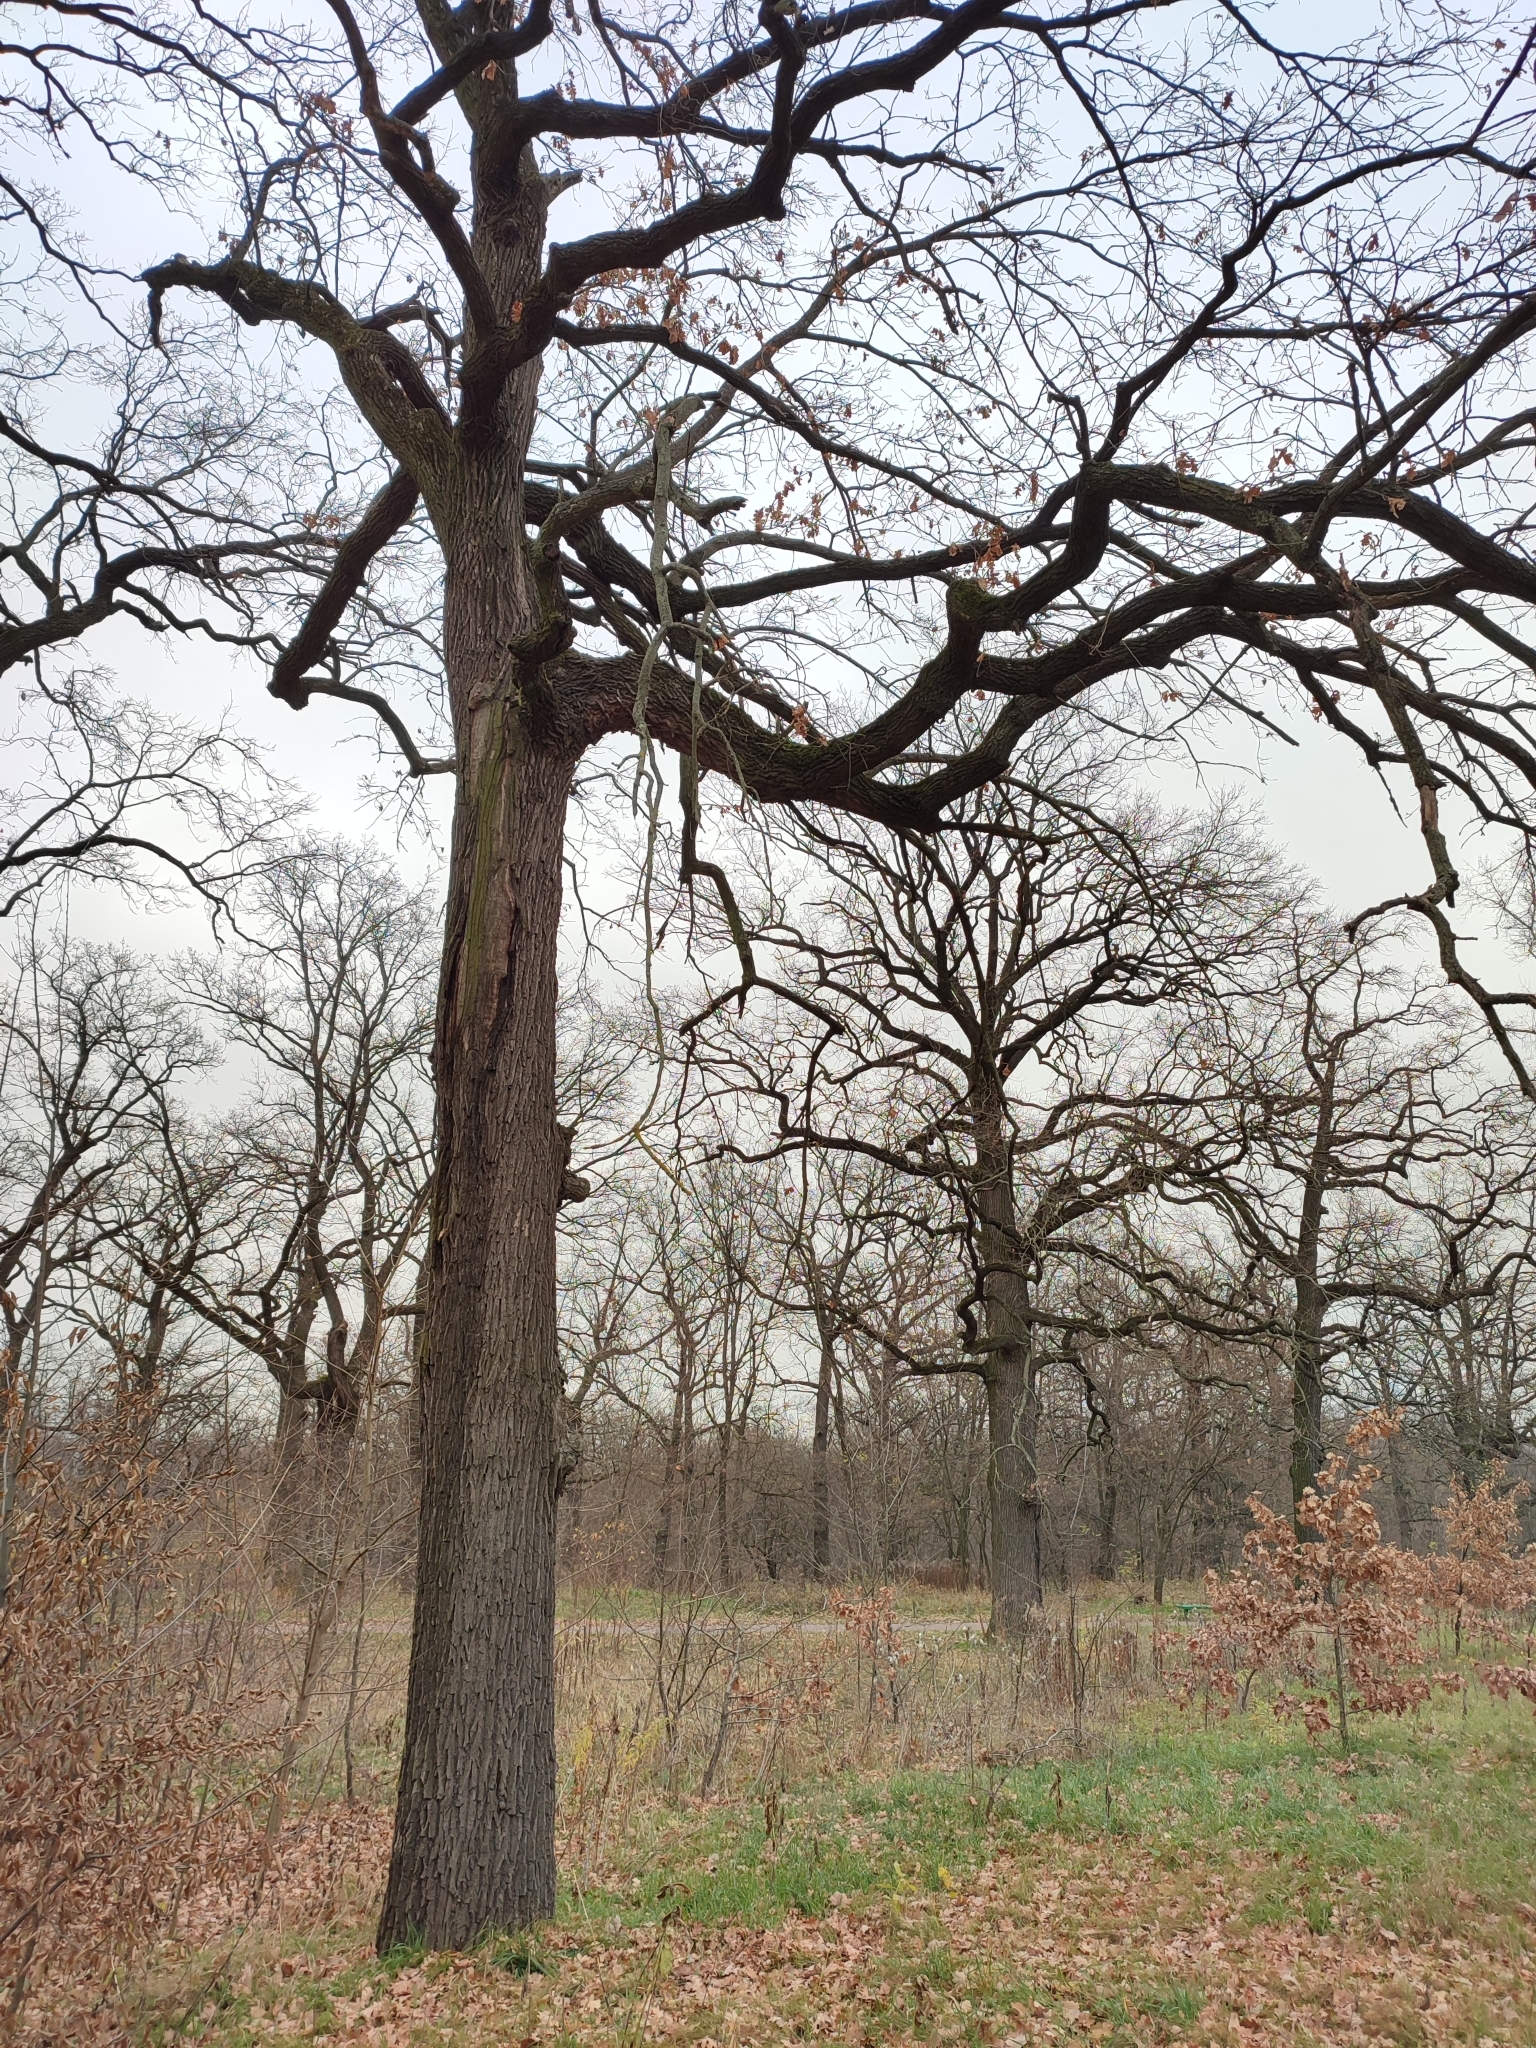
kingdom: Plantae
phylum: Tracheophyta
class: Magnoliopsida
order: Fagales
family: Fagaceae
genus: Quercus
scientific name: Quercus robur
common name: Pedunculate oak
